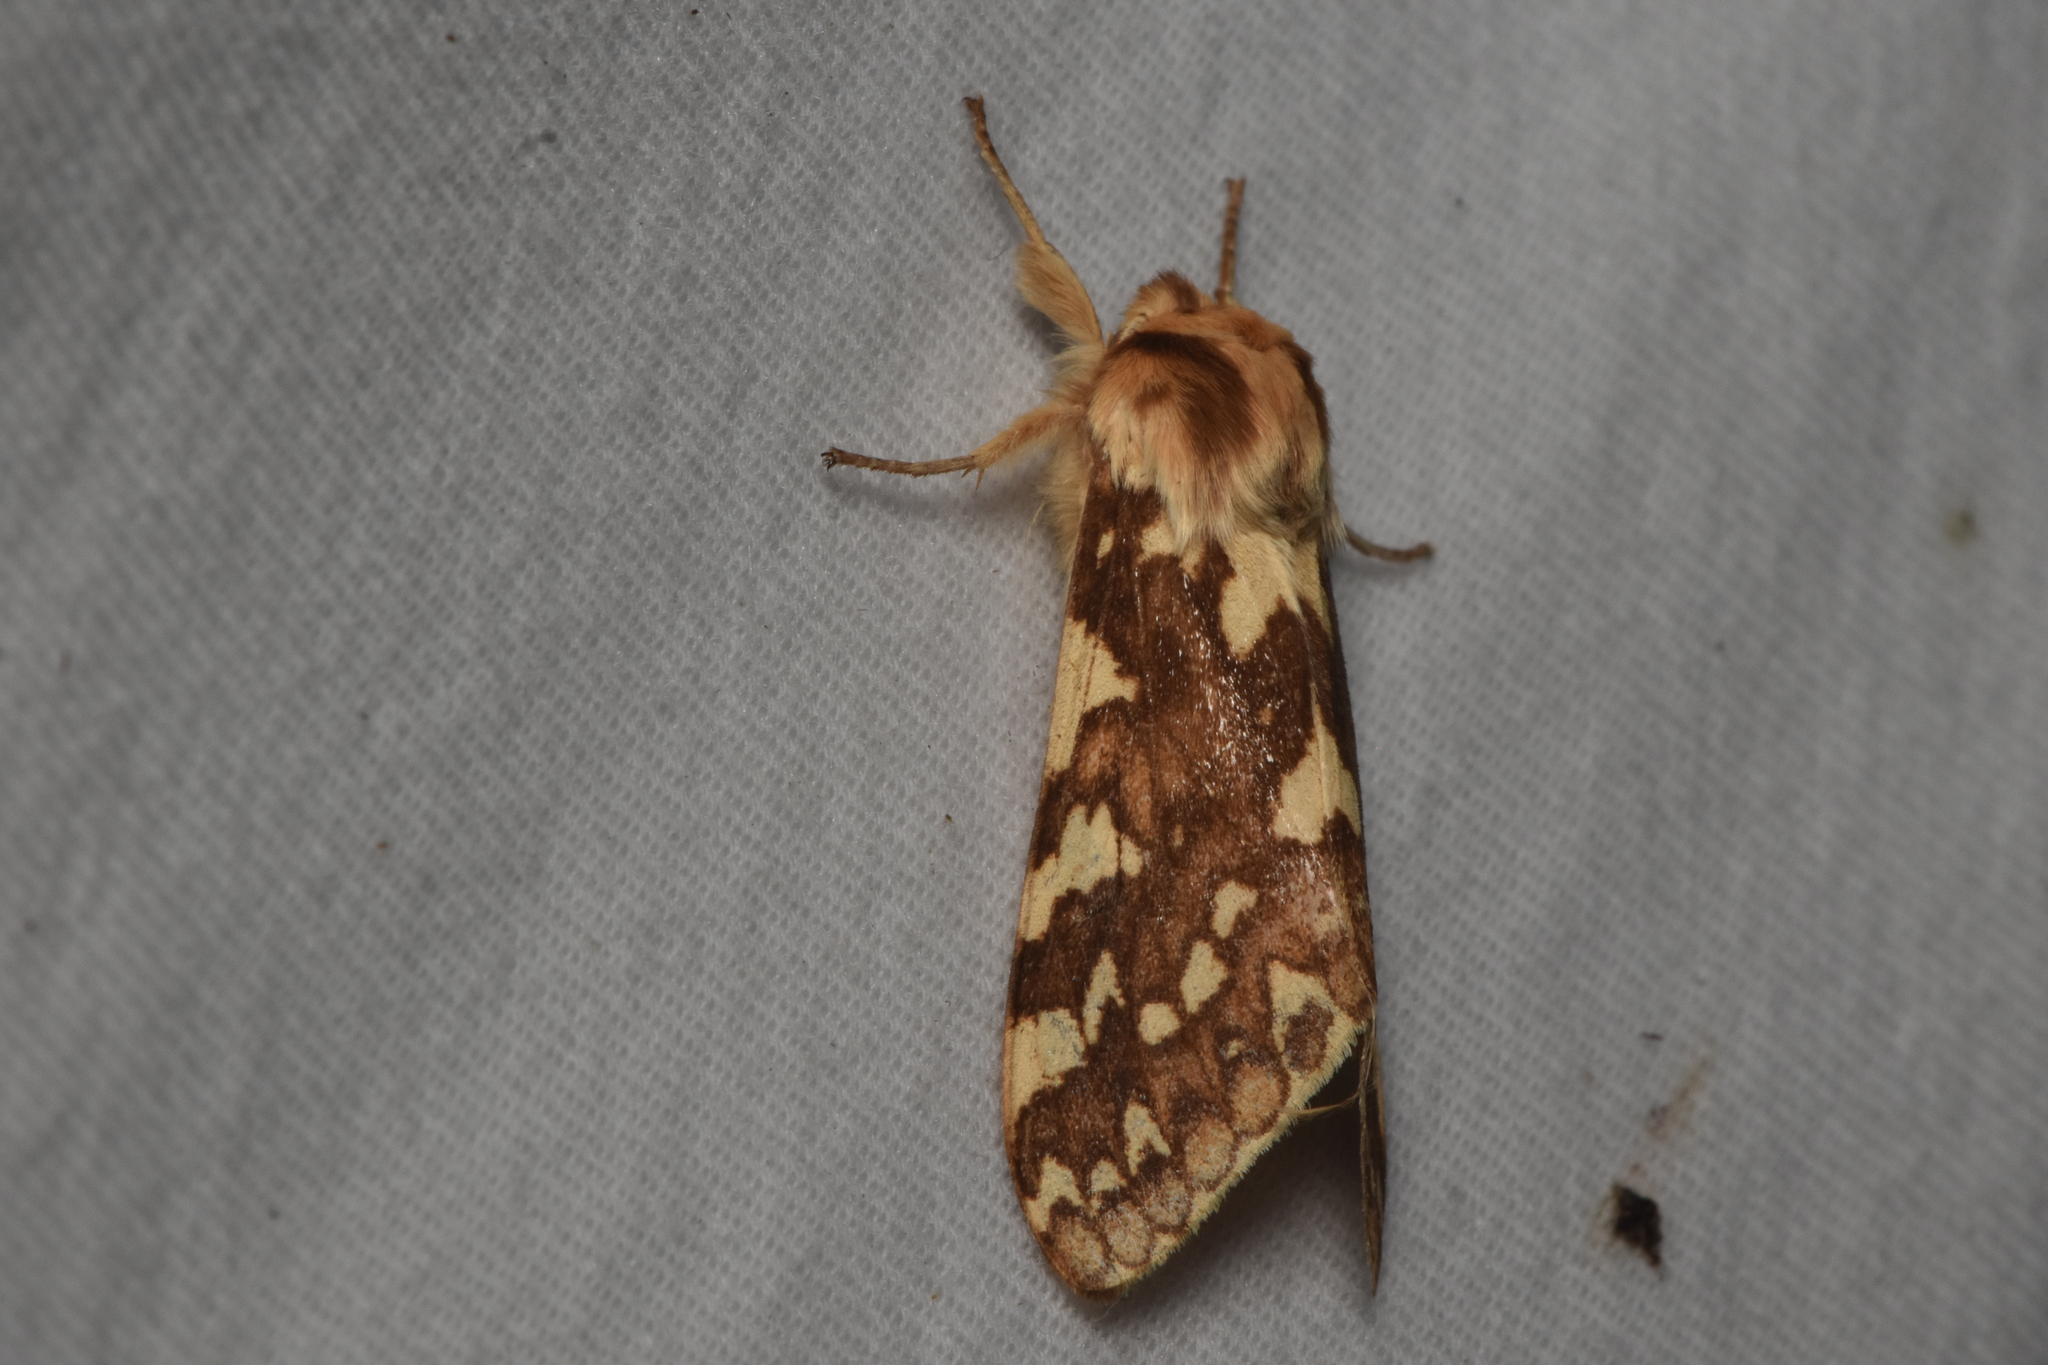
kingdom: Animalia
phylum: Arthropoda
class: Insecta
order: Lepidoptera
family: Erebidae
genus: Lophocampa
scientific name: Lophocampa maculata
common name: Spotted tussock moth
